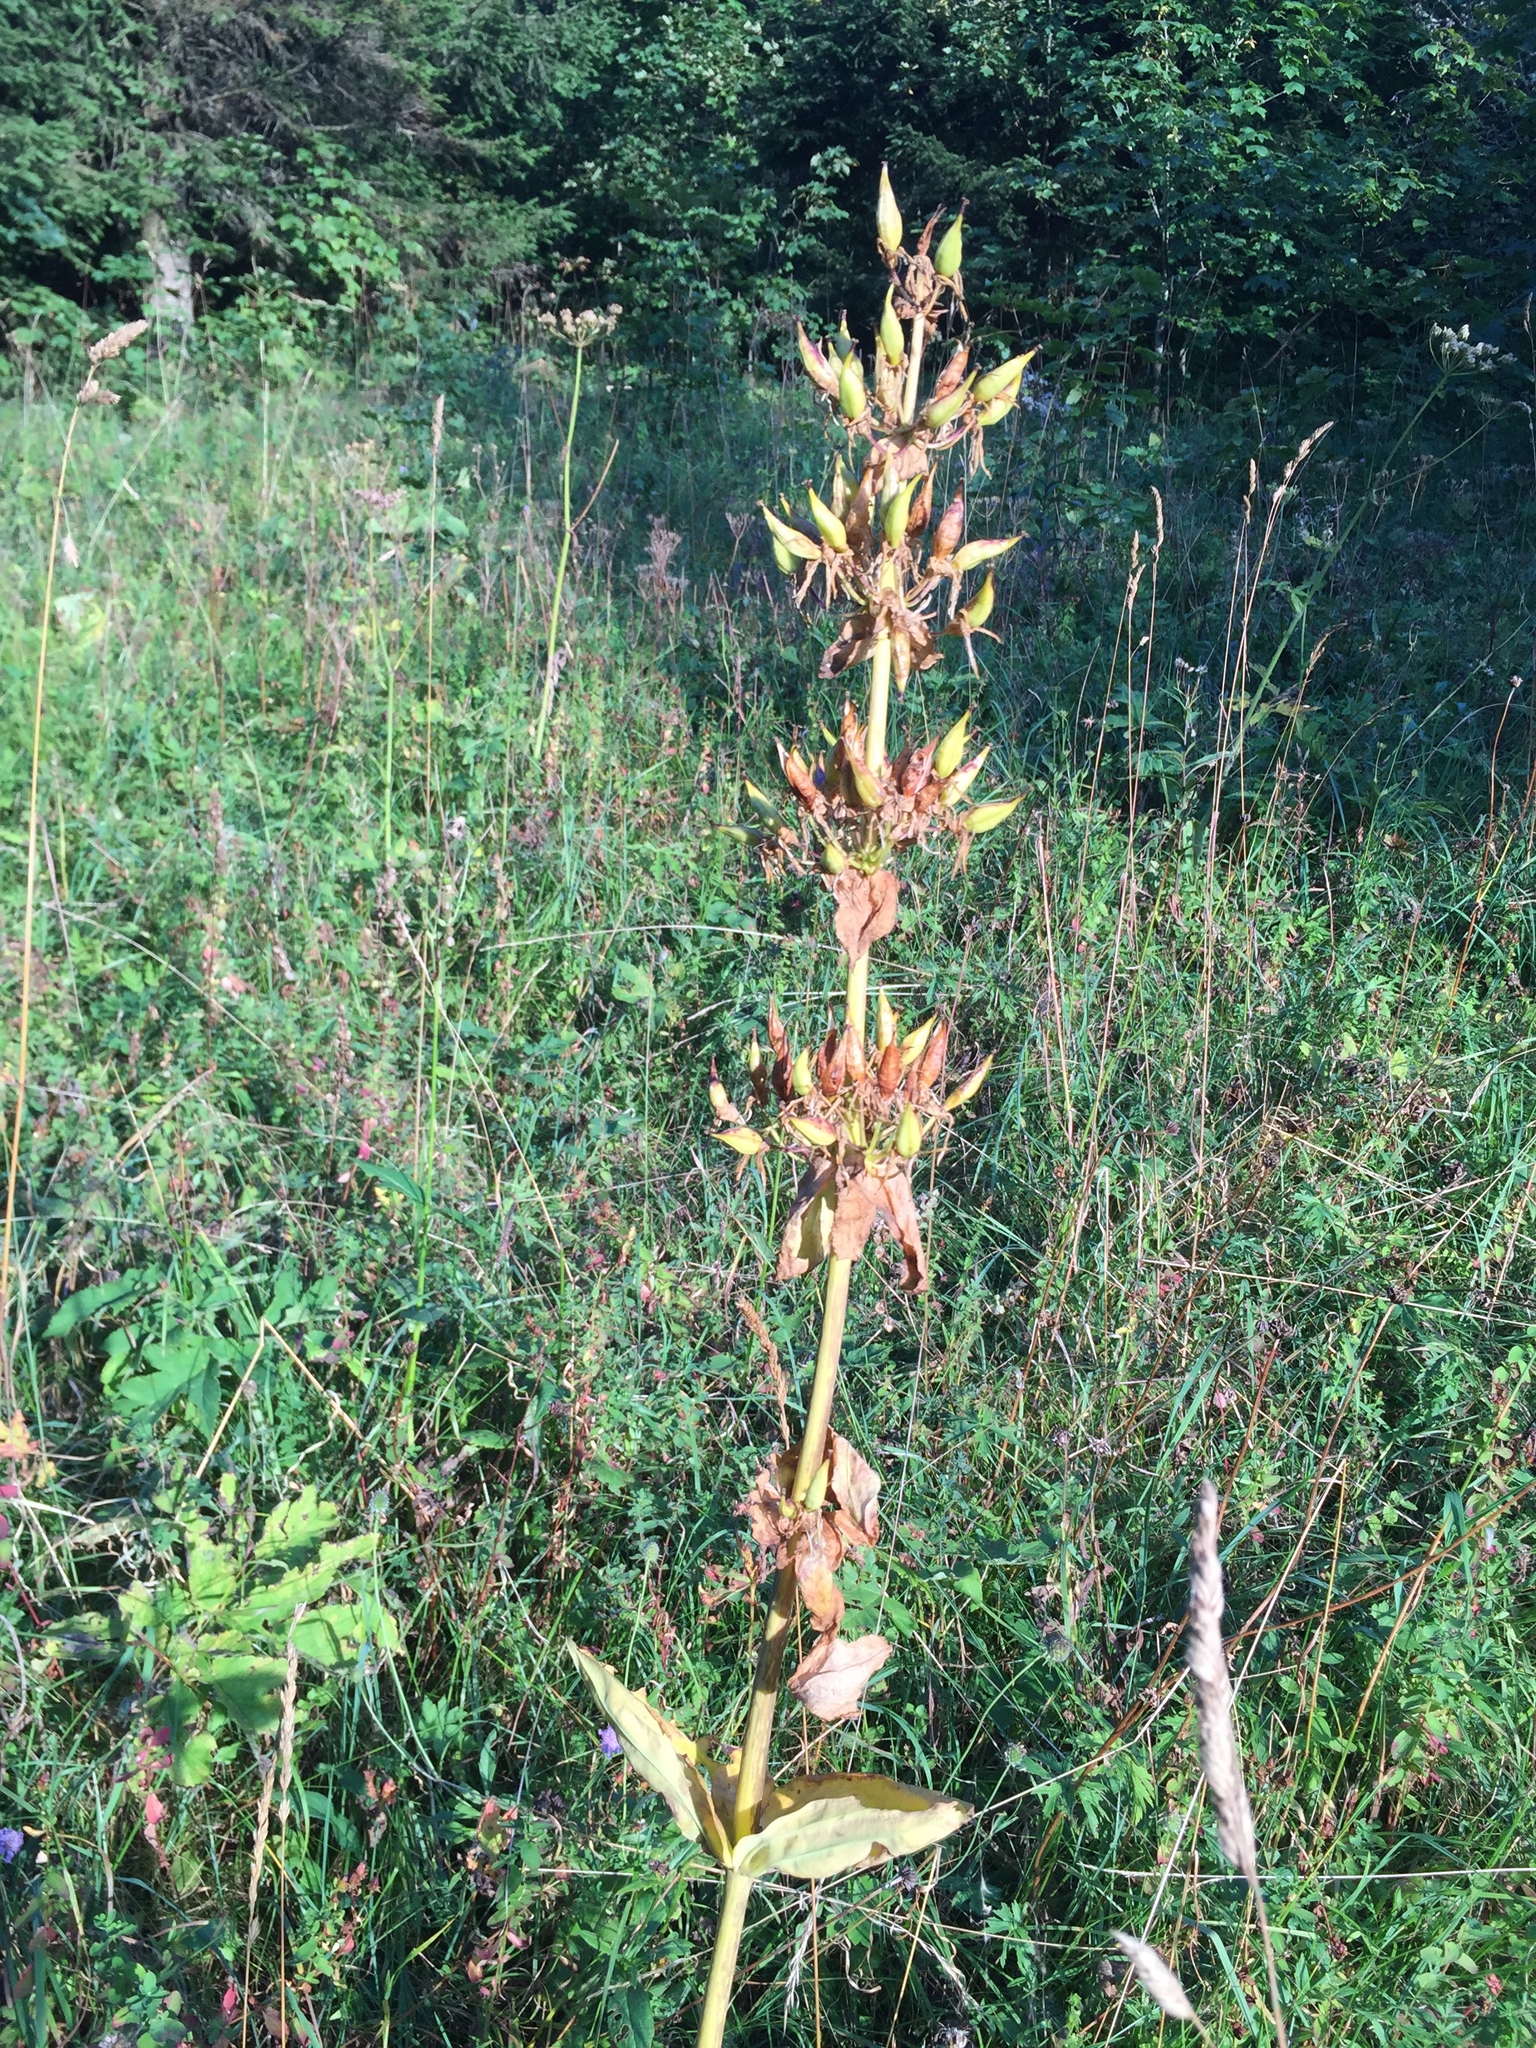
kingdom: Plantae
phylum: Tracheophyta
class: Magnoliopsida
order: Gentianales
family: Gentianaceae
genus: Gentiana
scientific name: Gentiana lutea
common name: Great yellow gentian
